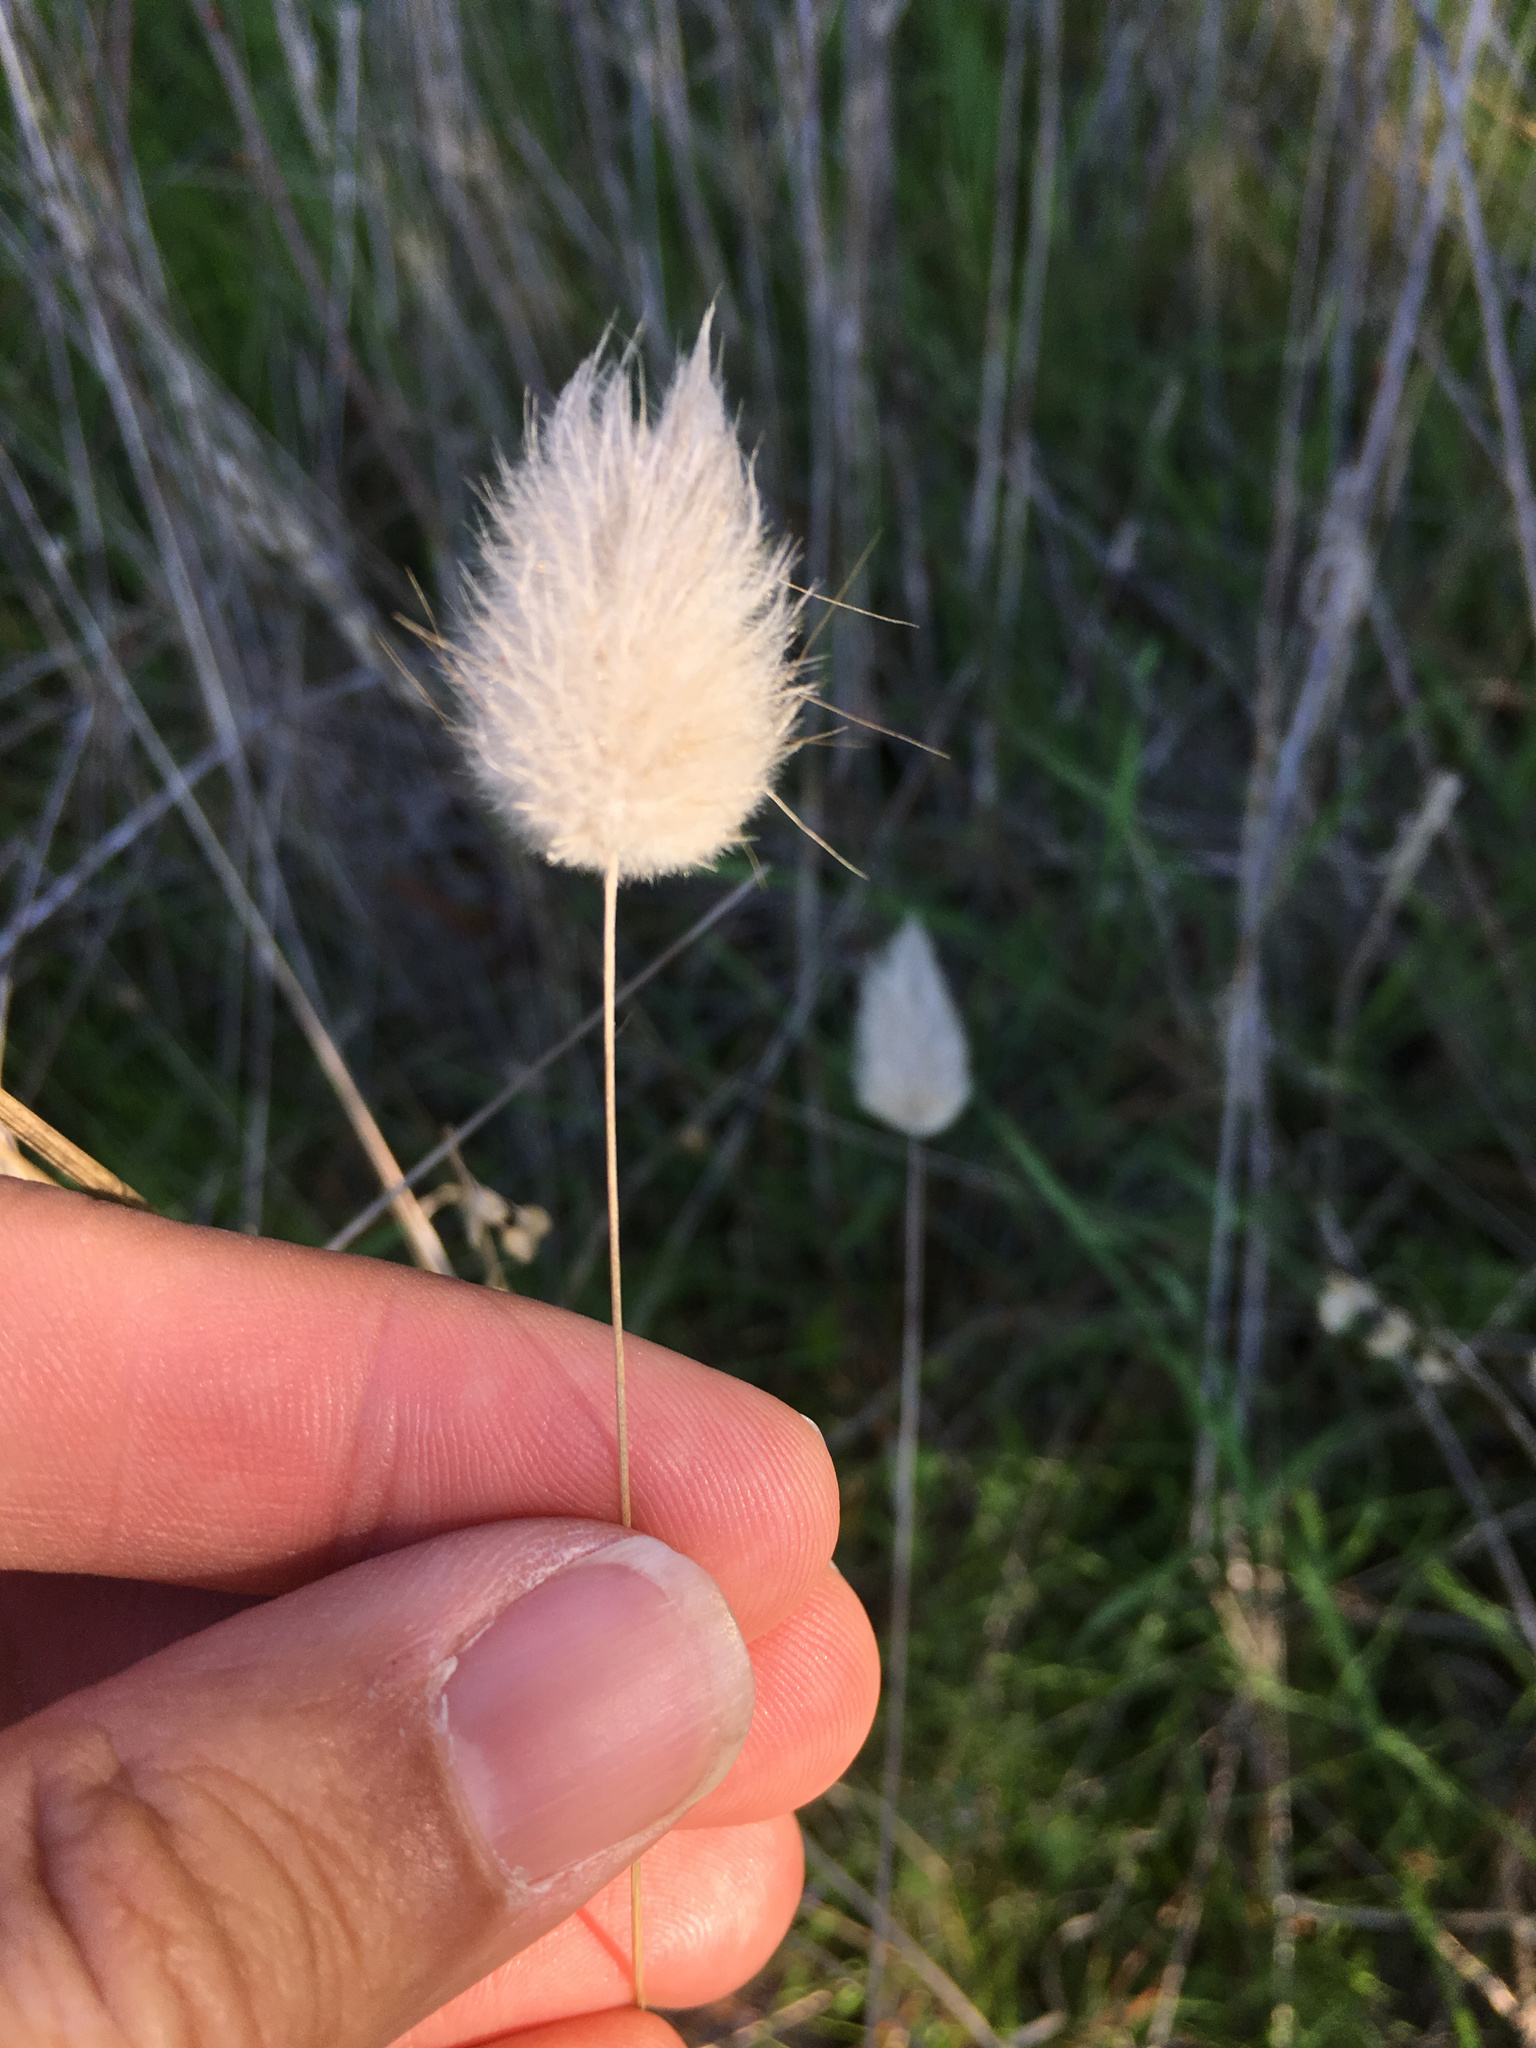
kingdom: Plantae
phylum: Tracheophyta
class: Liliopsida
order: Poales
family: Poaceae
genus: Lagurus
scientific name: Lagurus ovatus
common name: Hare's-tail
